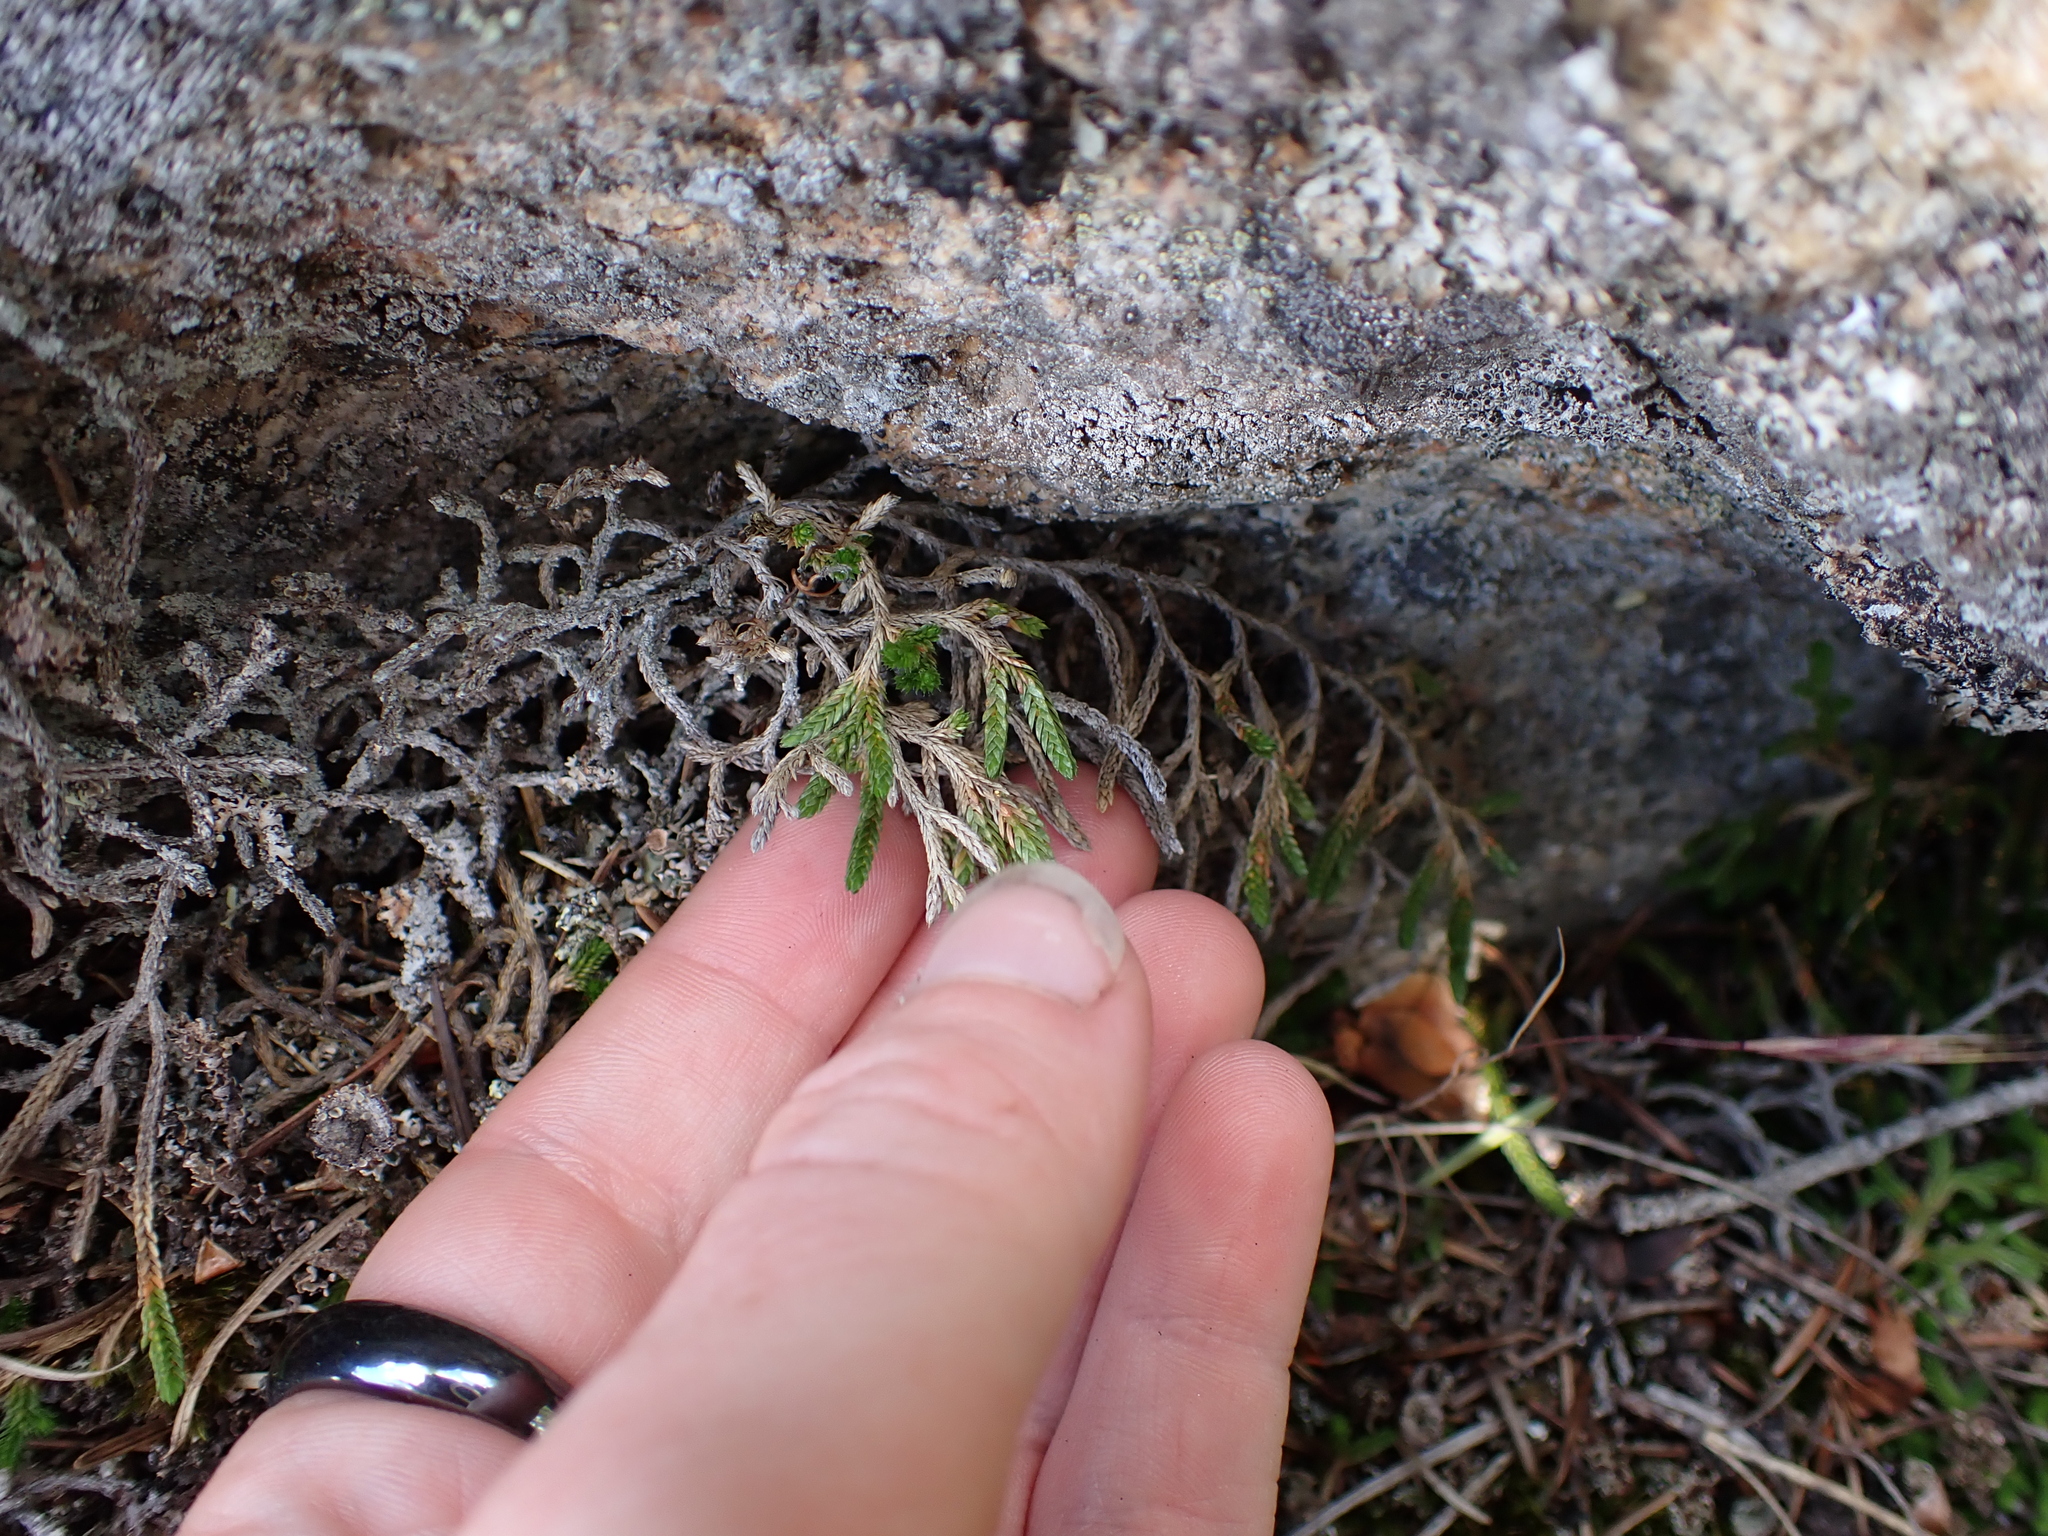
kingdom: Plantae
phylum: Tracheophyta
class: Lycopodiopsida
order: Selaginellales
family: Selaginellaceae
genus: Selaginella
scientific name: Selaginella wallacei
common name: Wallace's selaginella
